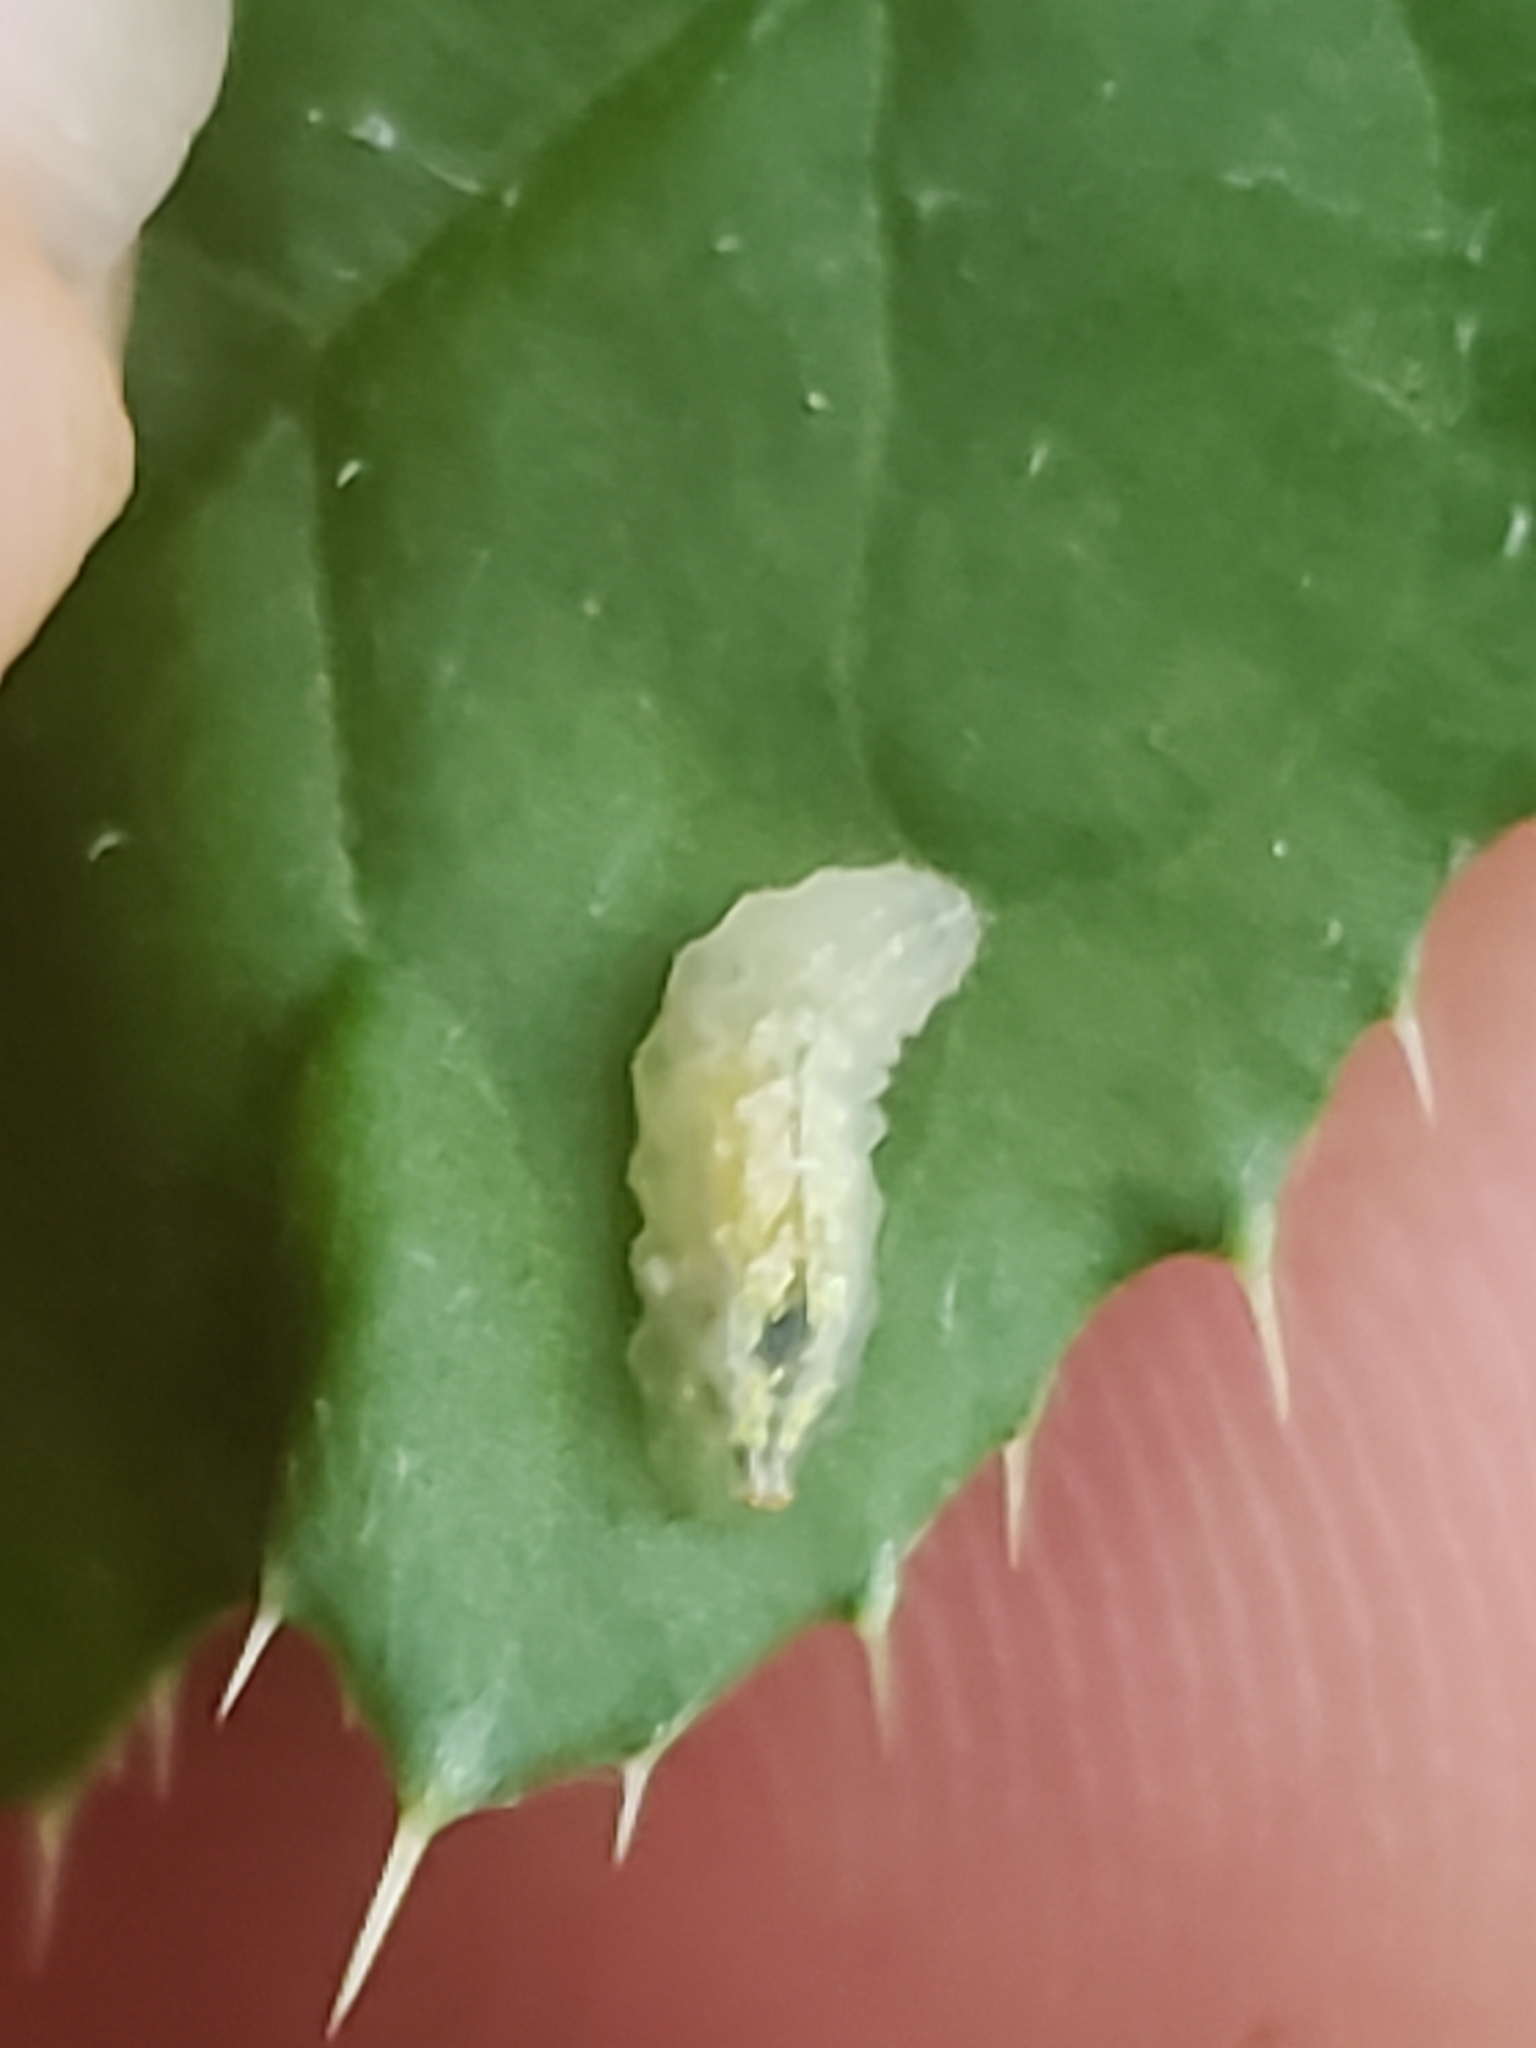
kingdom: Animalia
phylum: Arthropoda
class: Insecta
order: Diptera
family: Syrphidae
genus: Syrphus
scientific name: Syrphus
